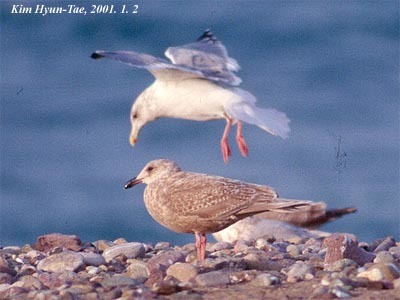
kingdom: Animalia
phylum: Chordata
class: Aves
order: Charadriiformes
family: Laridae
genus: Larus
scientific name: Larus glaucescens
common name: Glaucous-winged gull
